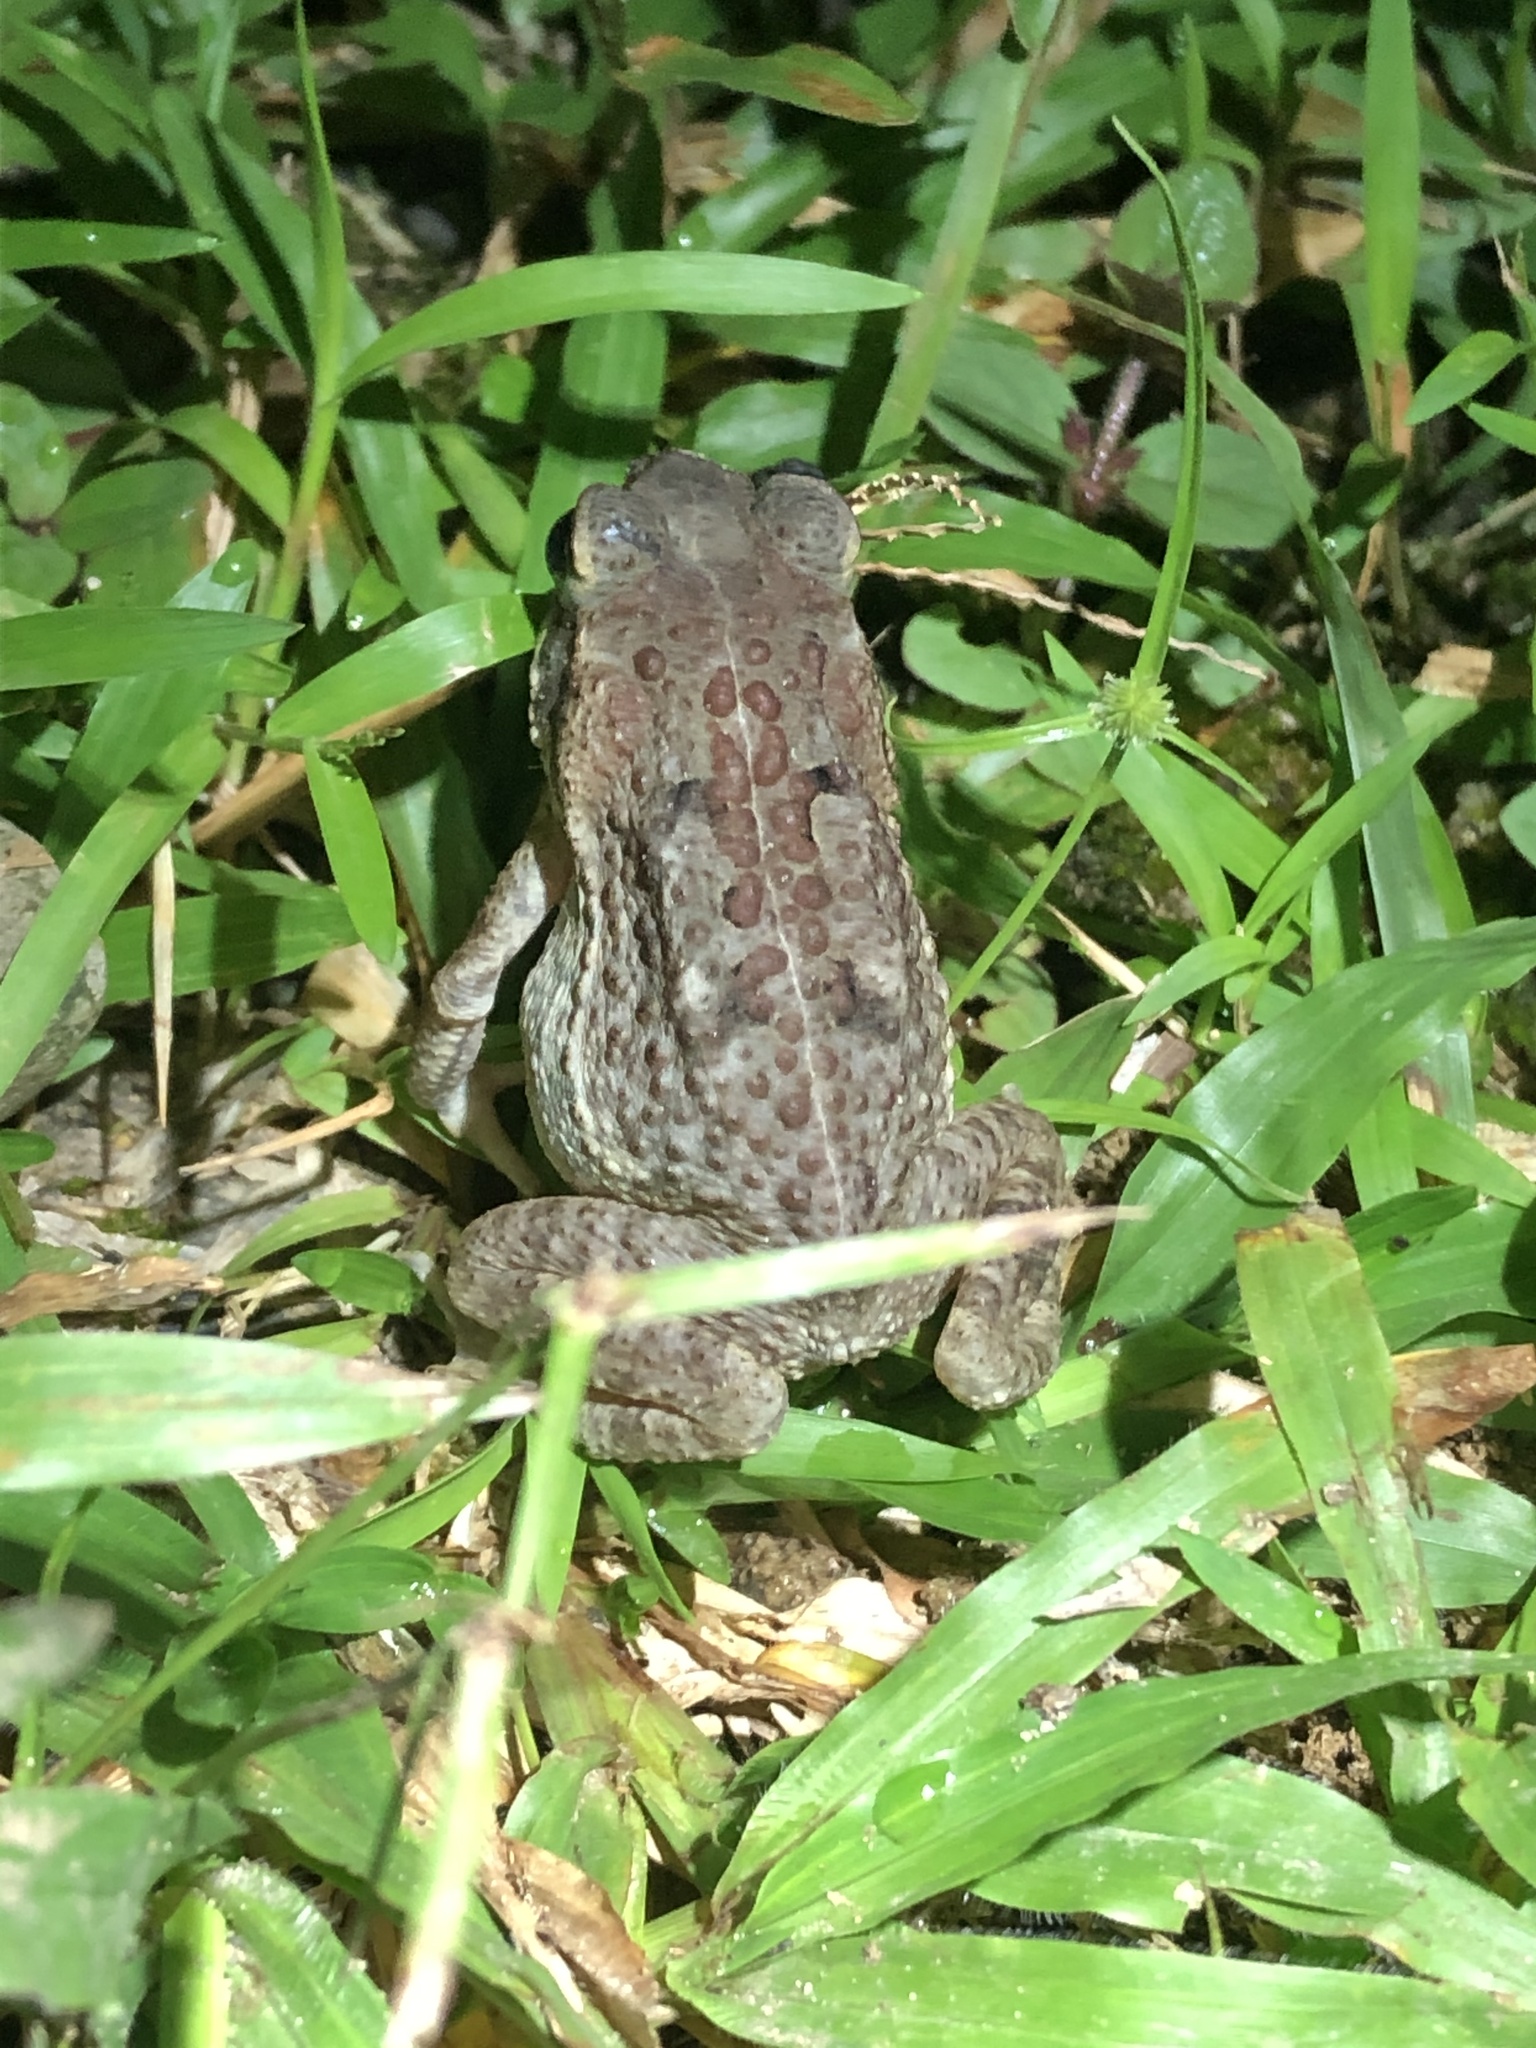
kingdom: Animalia
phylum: Chordata
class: Amphibia
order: Anura
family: Bufonidae
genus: Rhinella
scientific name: Rhinella marina
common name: Cane toad
